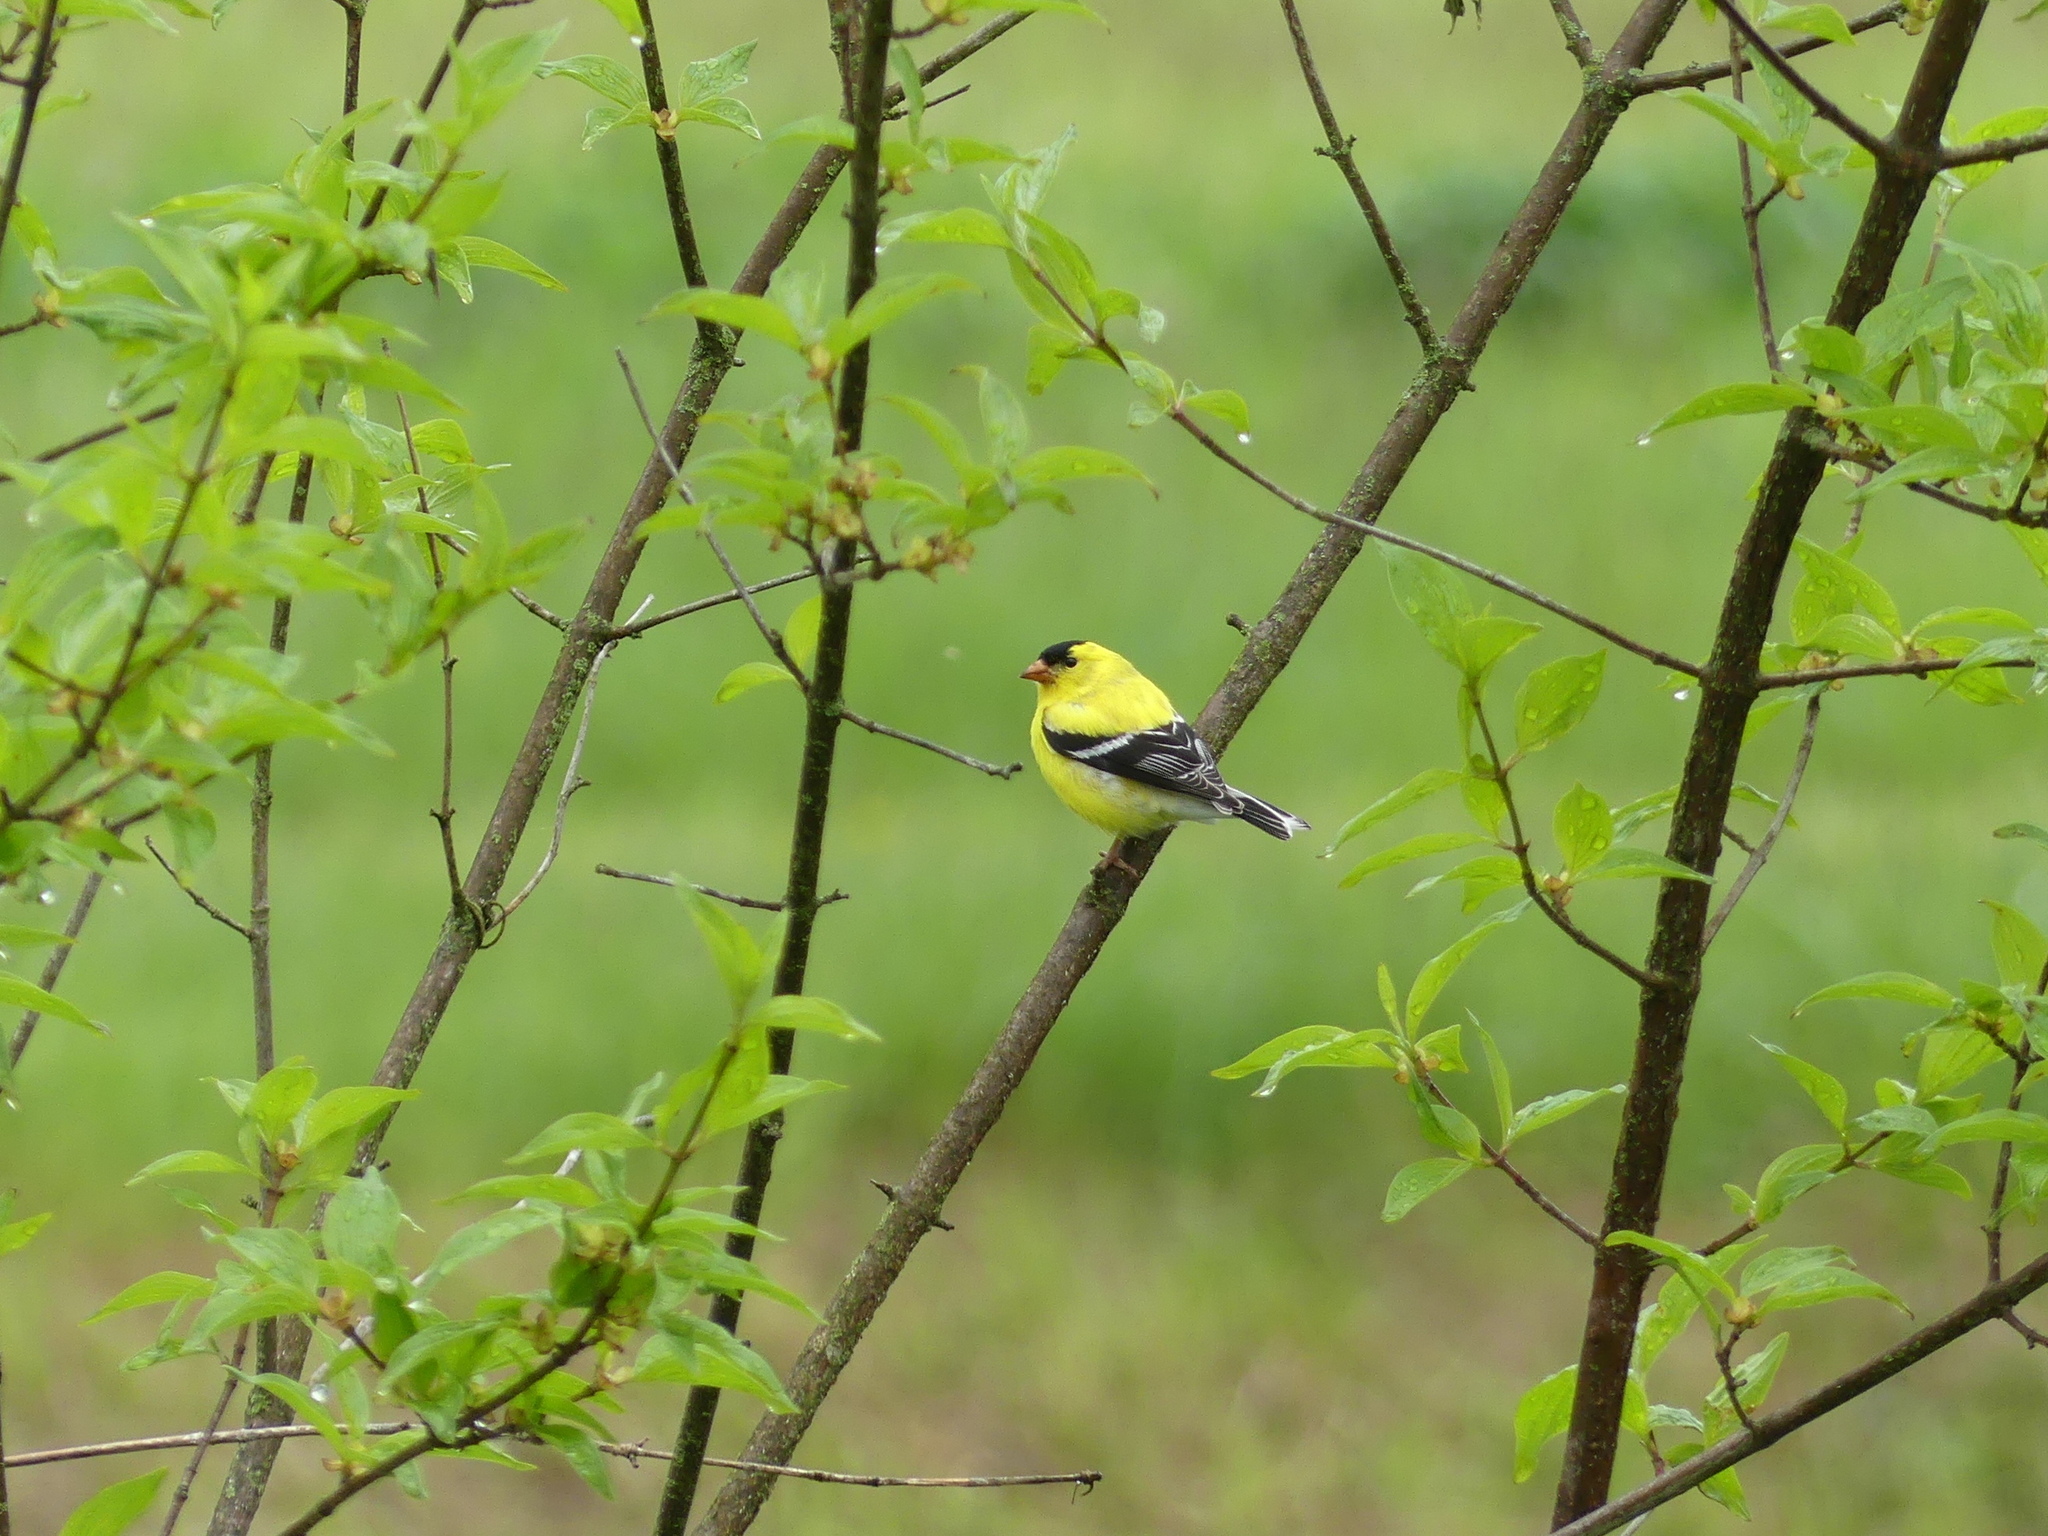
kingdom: Animalia
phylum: Chordata
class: Aves
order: Passeriformes
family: Fringillidae
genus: Spinus
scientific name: Spinus tristis
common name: American goldfinch
